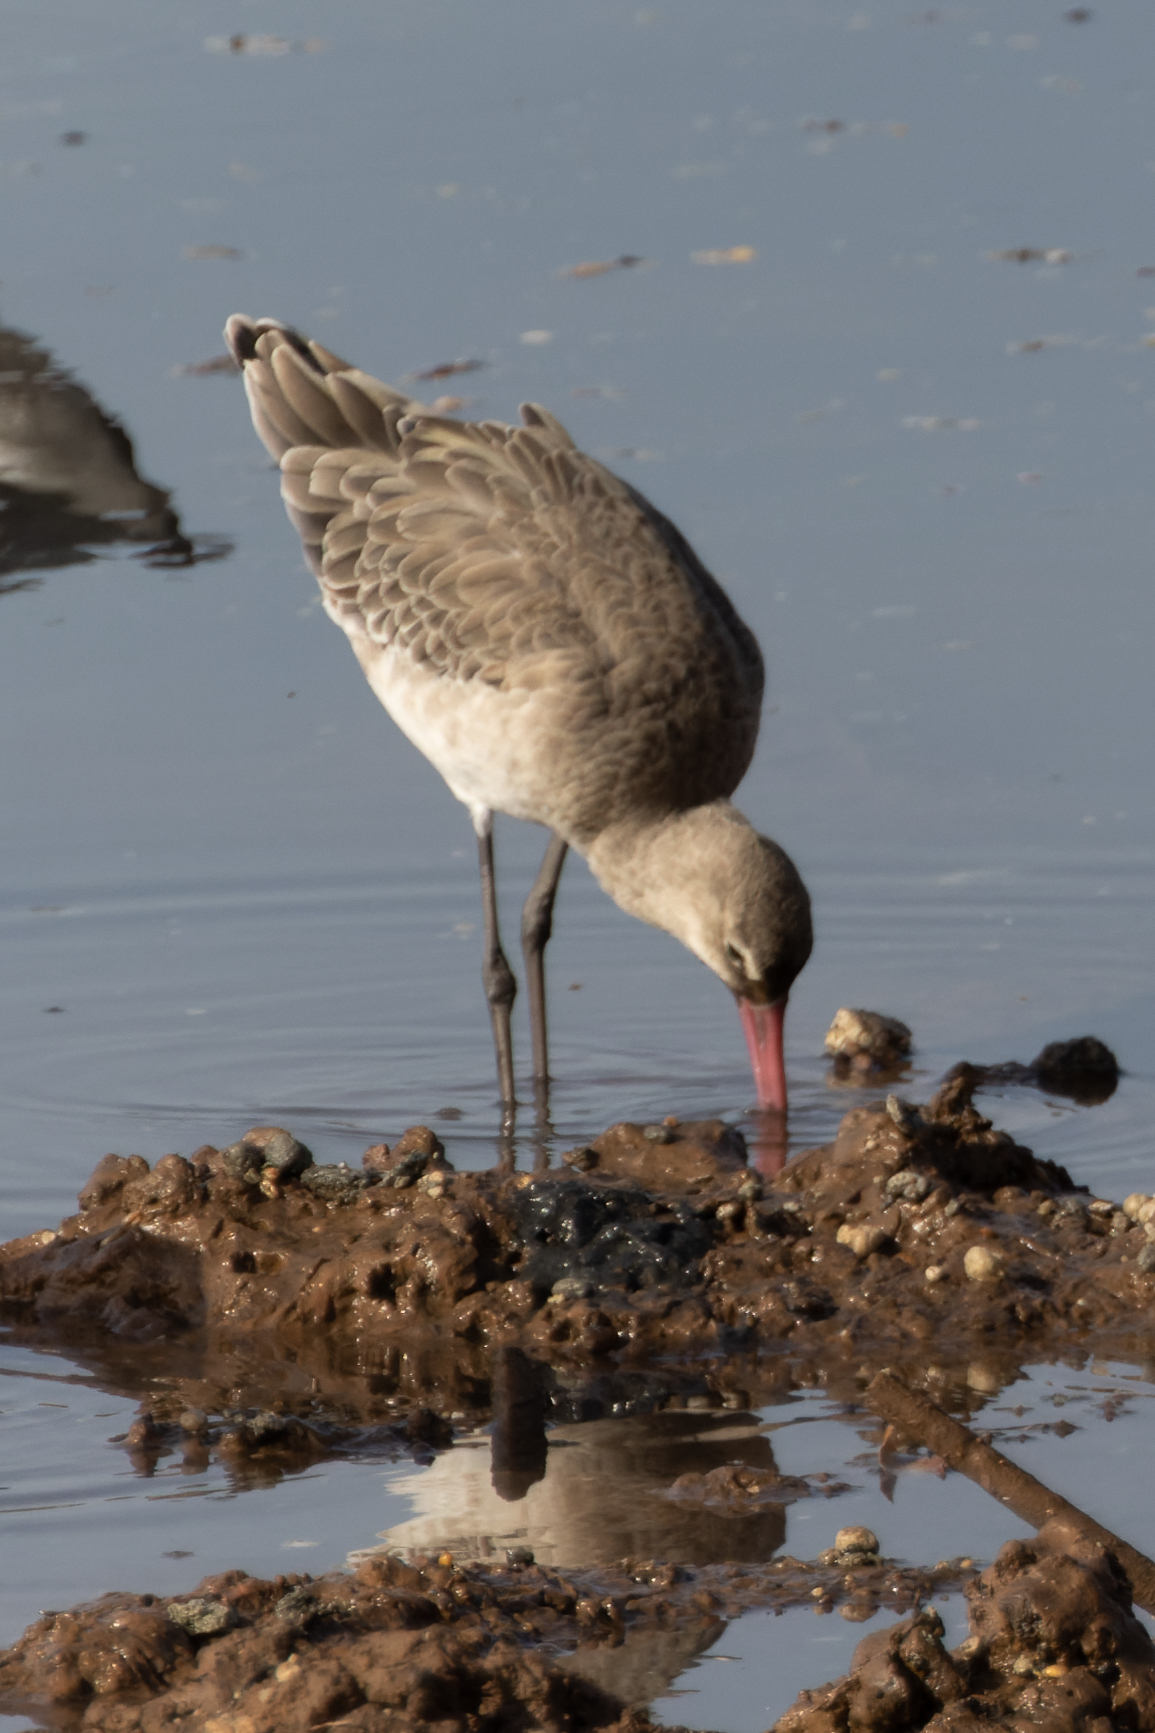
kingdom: Animalia
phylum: Chordata
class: Aves
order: Charadriiformes
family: Scolopacidae
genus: Limosa
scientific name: Limosa limosa
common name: Black-tailed godwit
